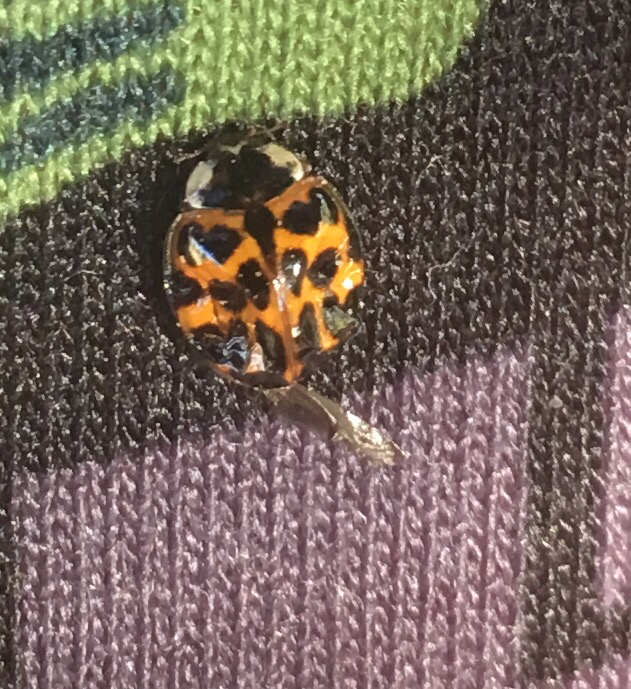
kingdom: Animalia
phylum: Arthropoda
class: Insecta
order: Coleoptera
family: Coccinellidae
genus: Harmonia
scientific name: Harmonia axyridis
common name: Harlequin ladybird
